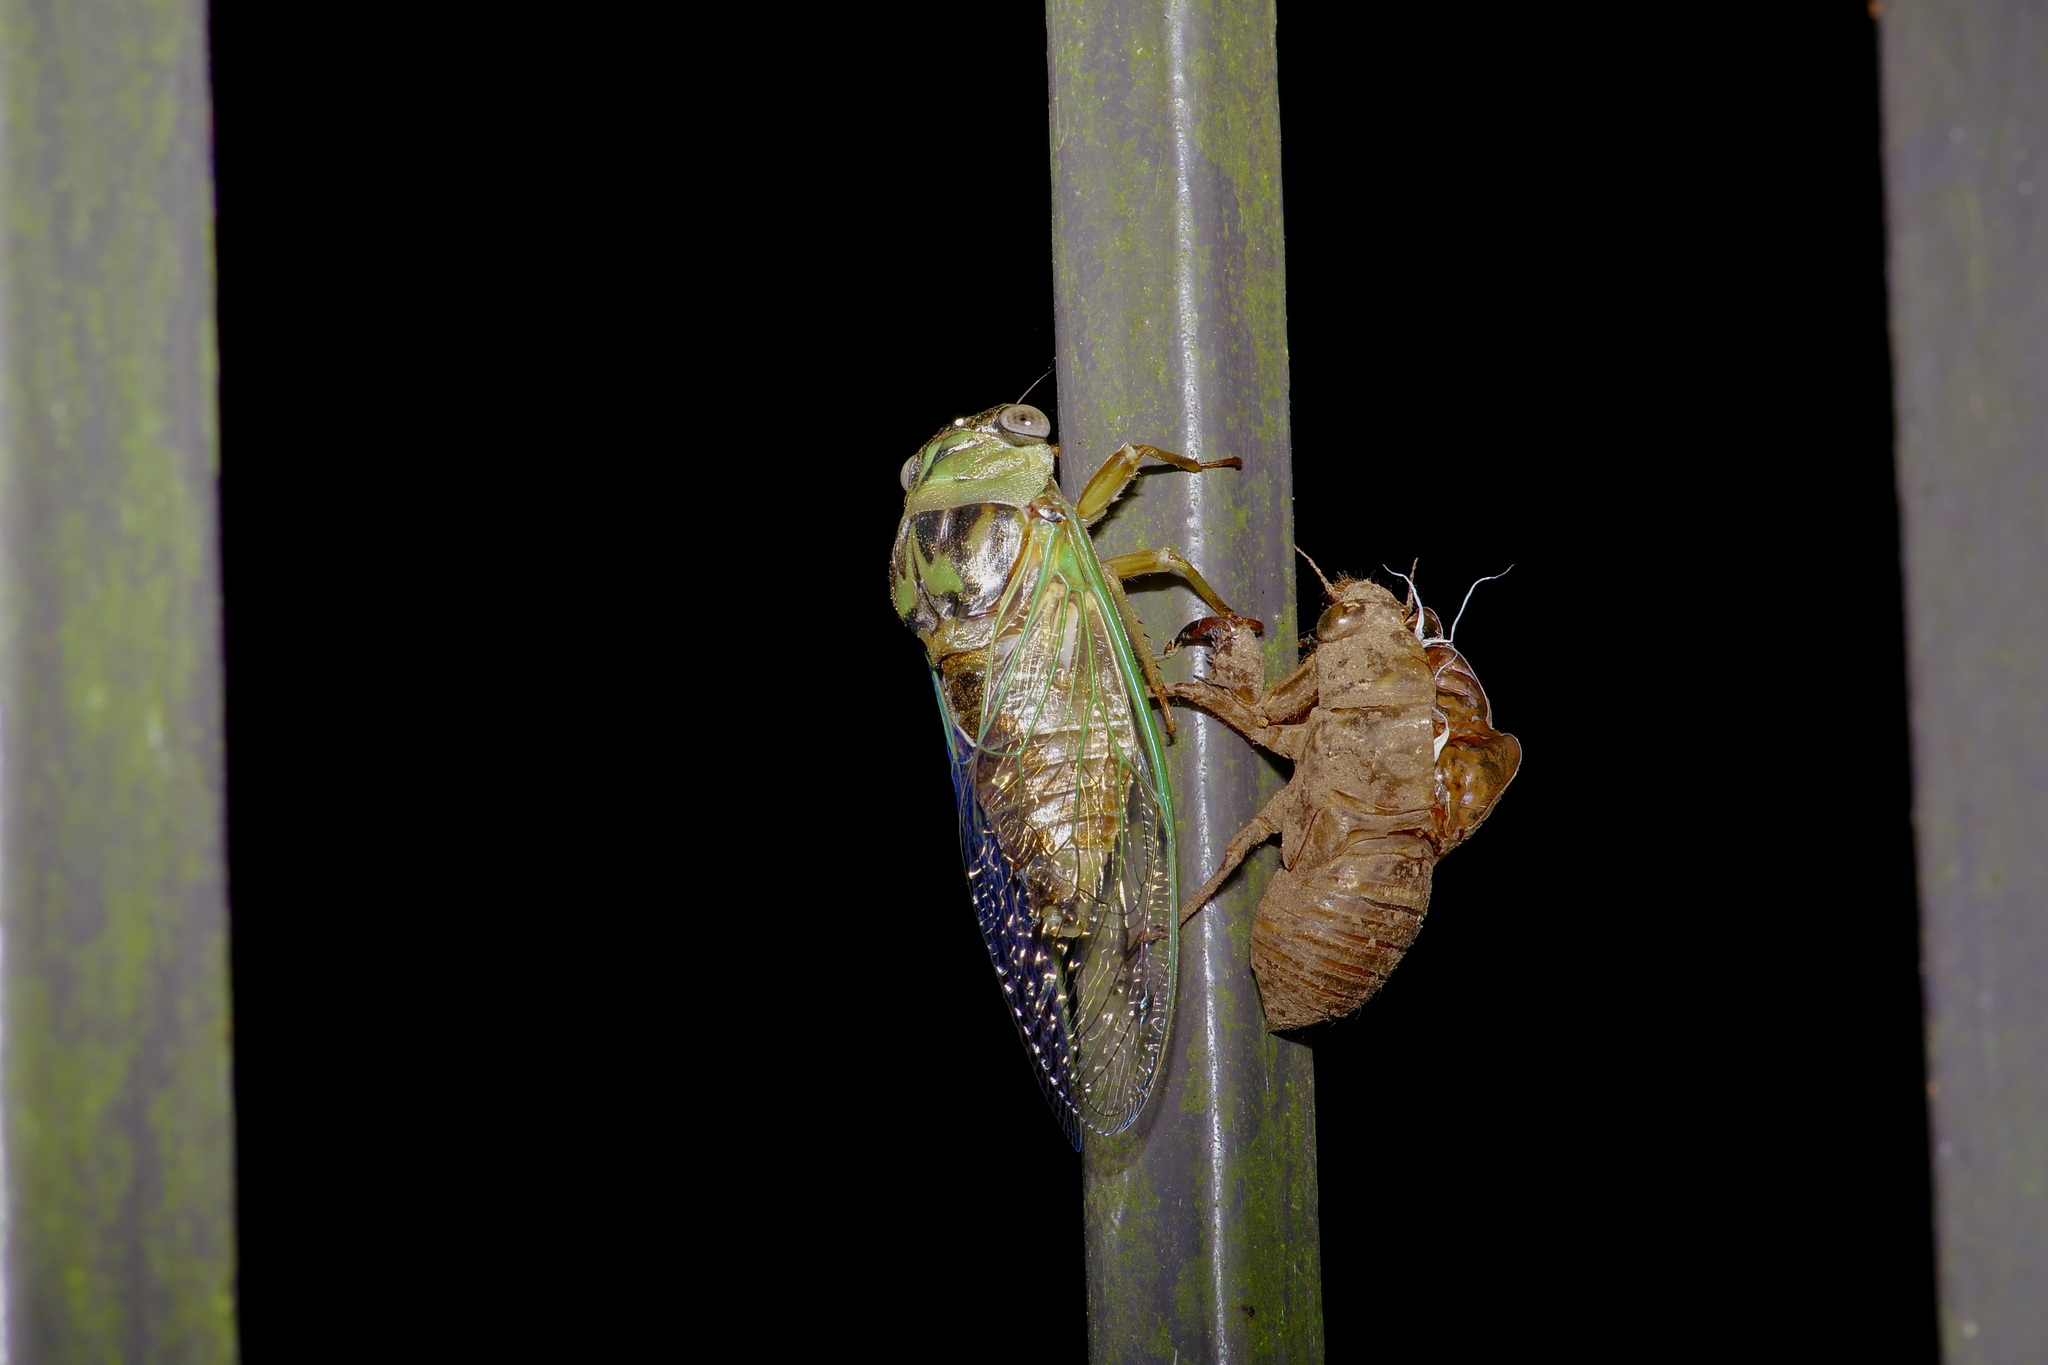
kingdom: Animalia
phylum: Arthropoda
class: Insecta
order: Hemiptera
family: Cicadidae
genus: Megatibicen
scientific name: Megatibicen resh
